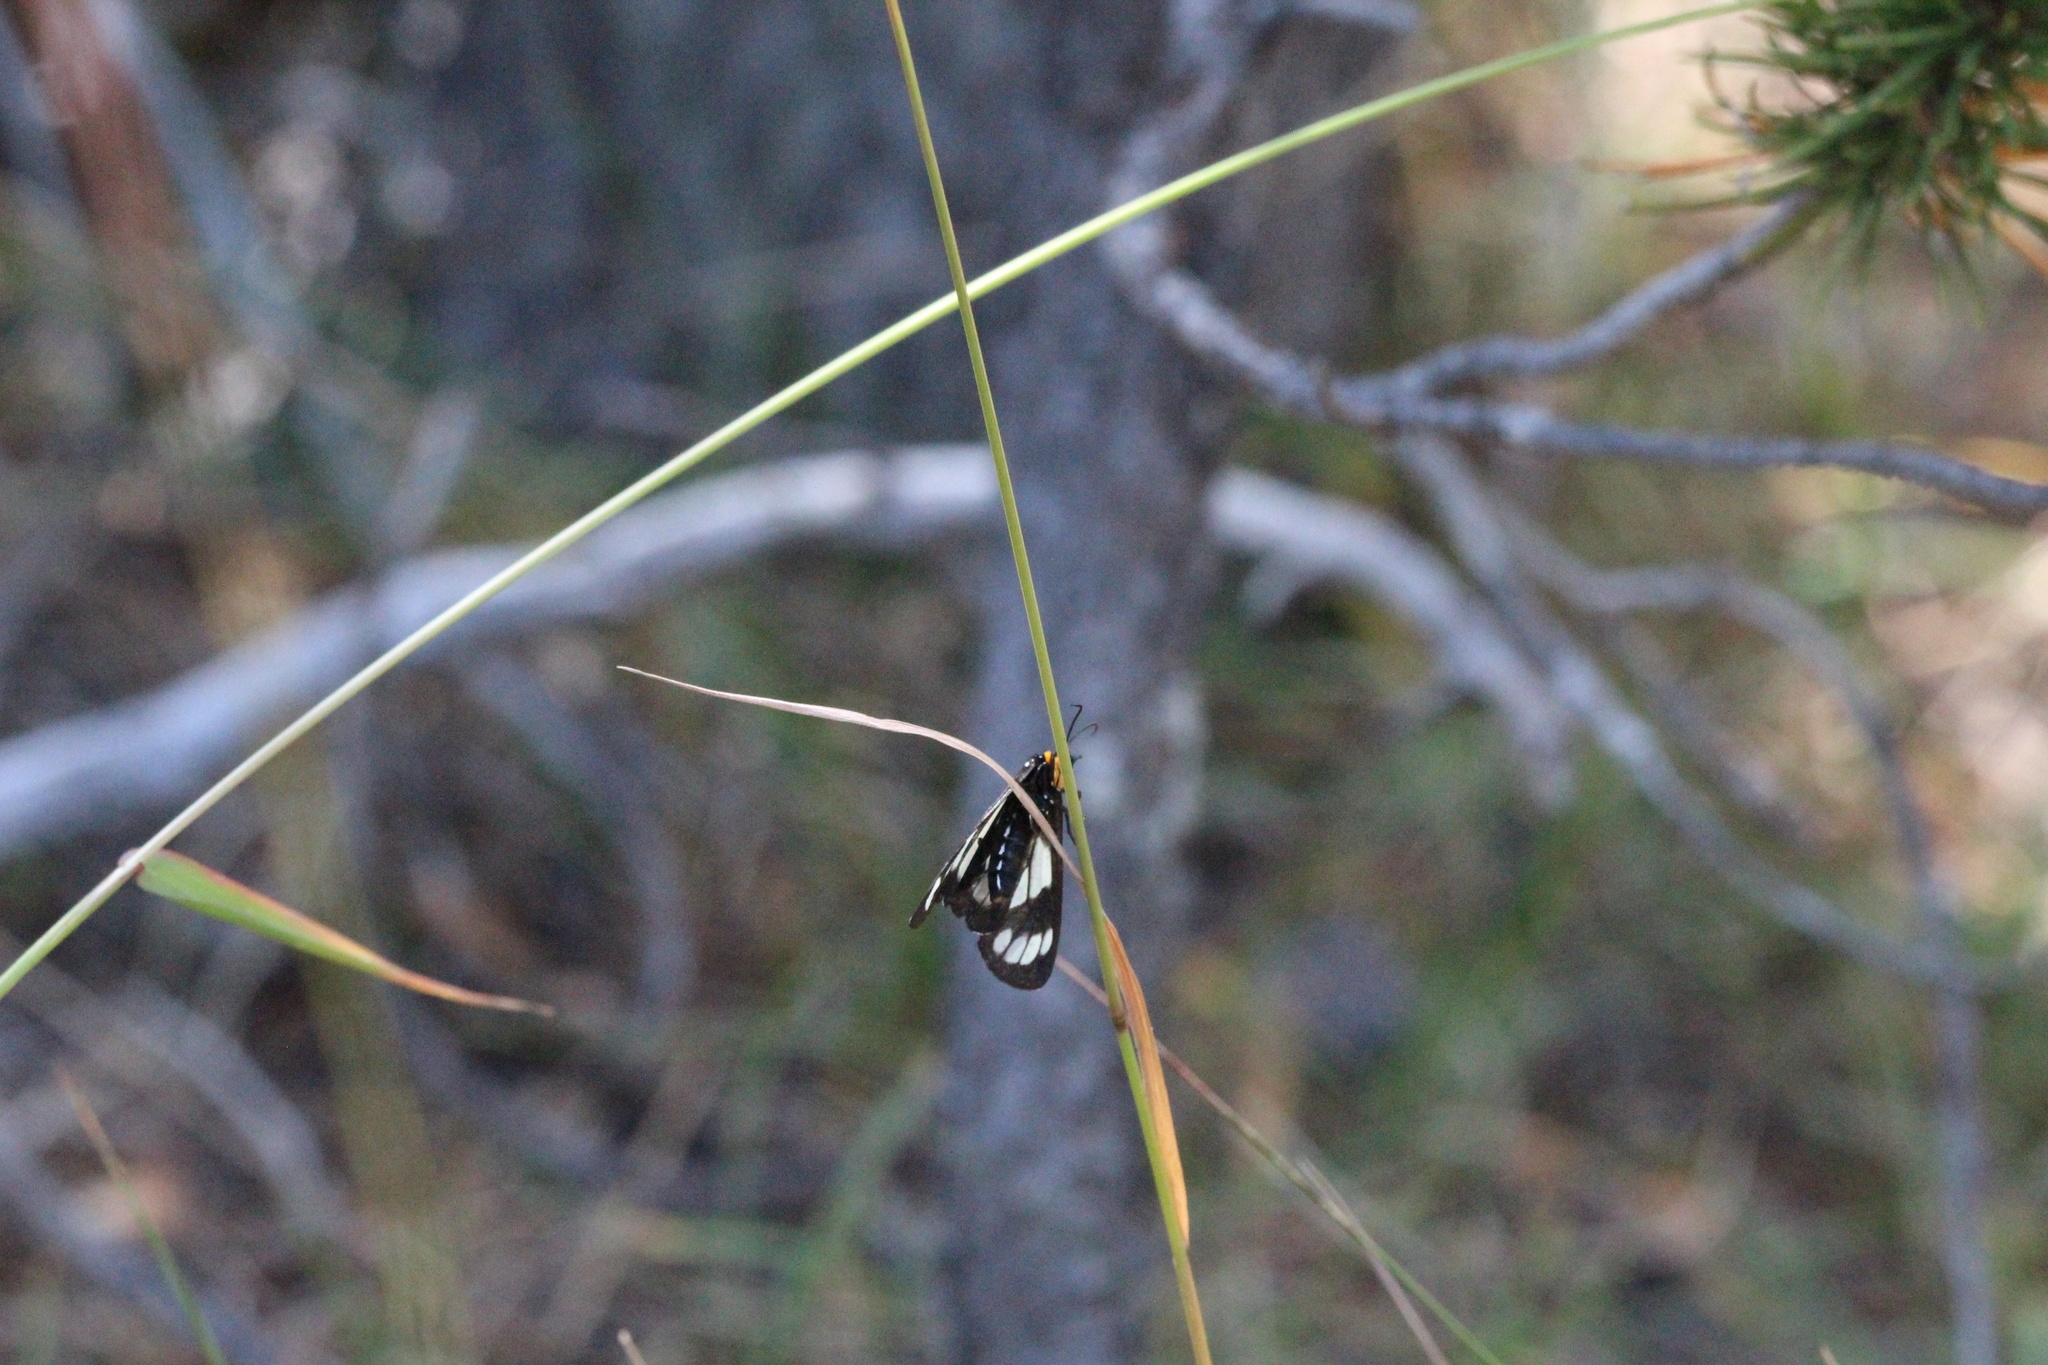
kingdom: Animalia
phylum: Arthropoda
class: Insecta
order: Lepidoptera
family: Erebidae
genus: Gnophaela
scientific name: Gnophaela vermiculata
